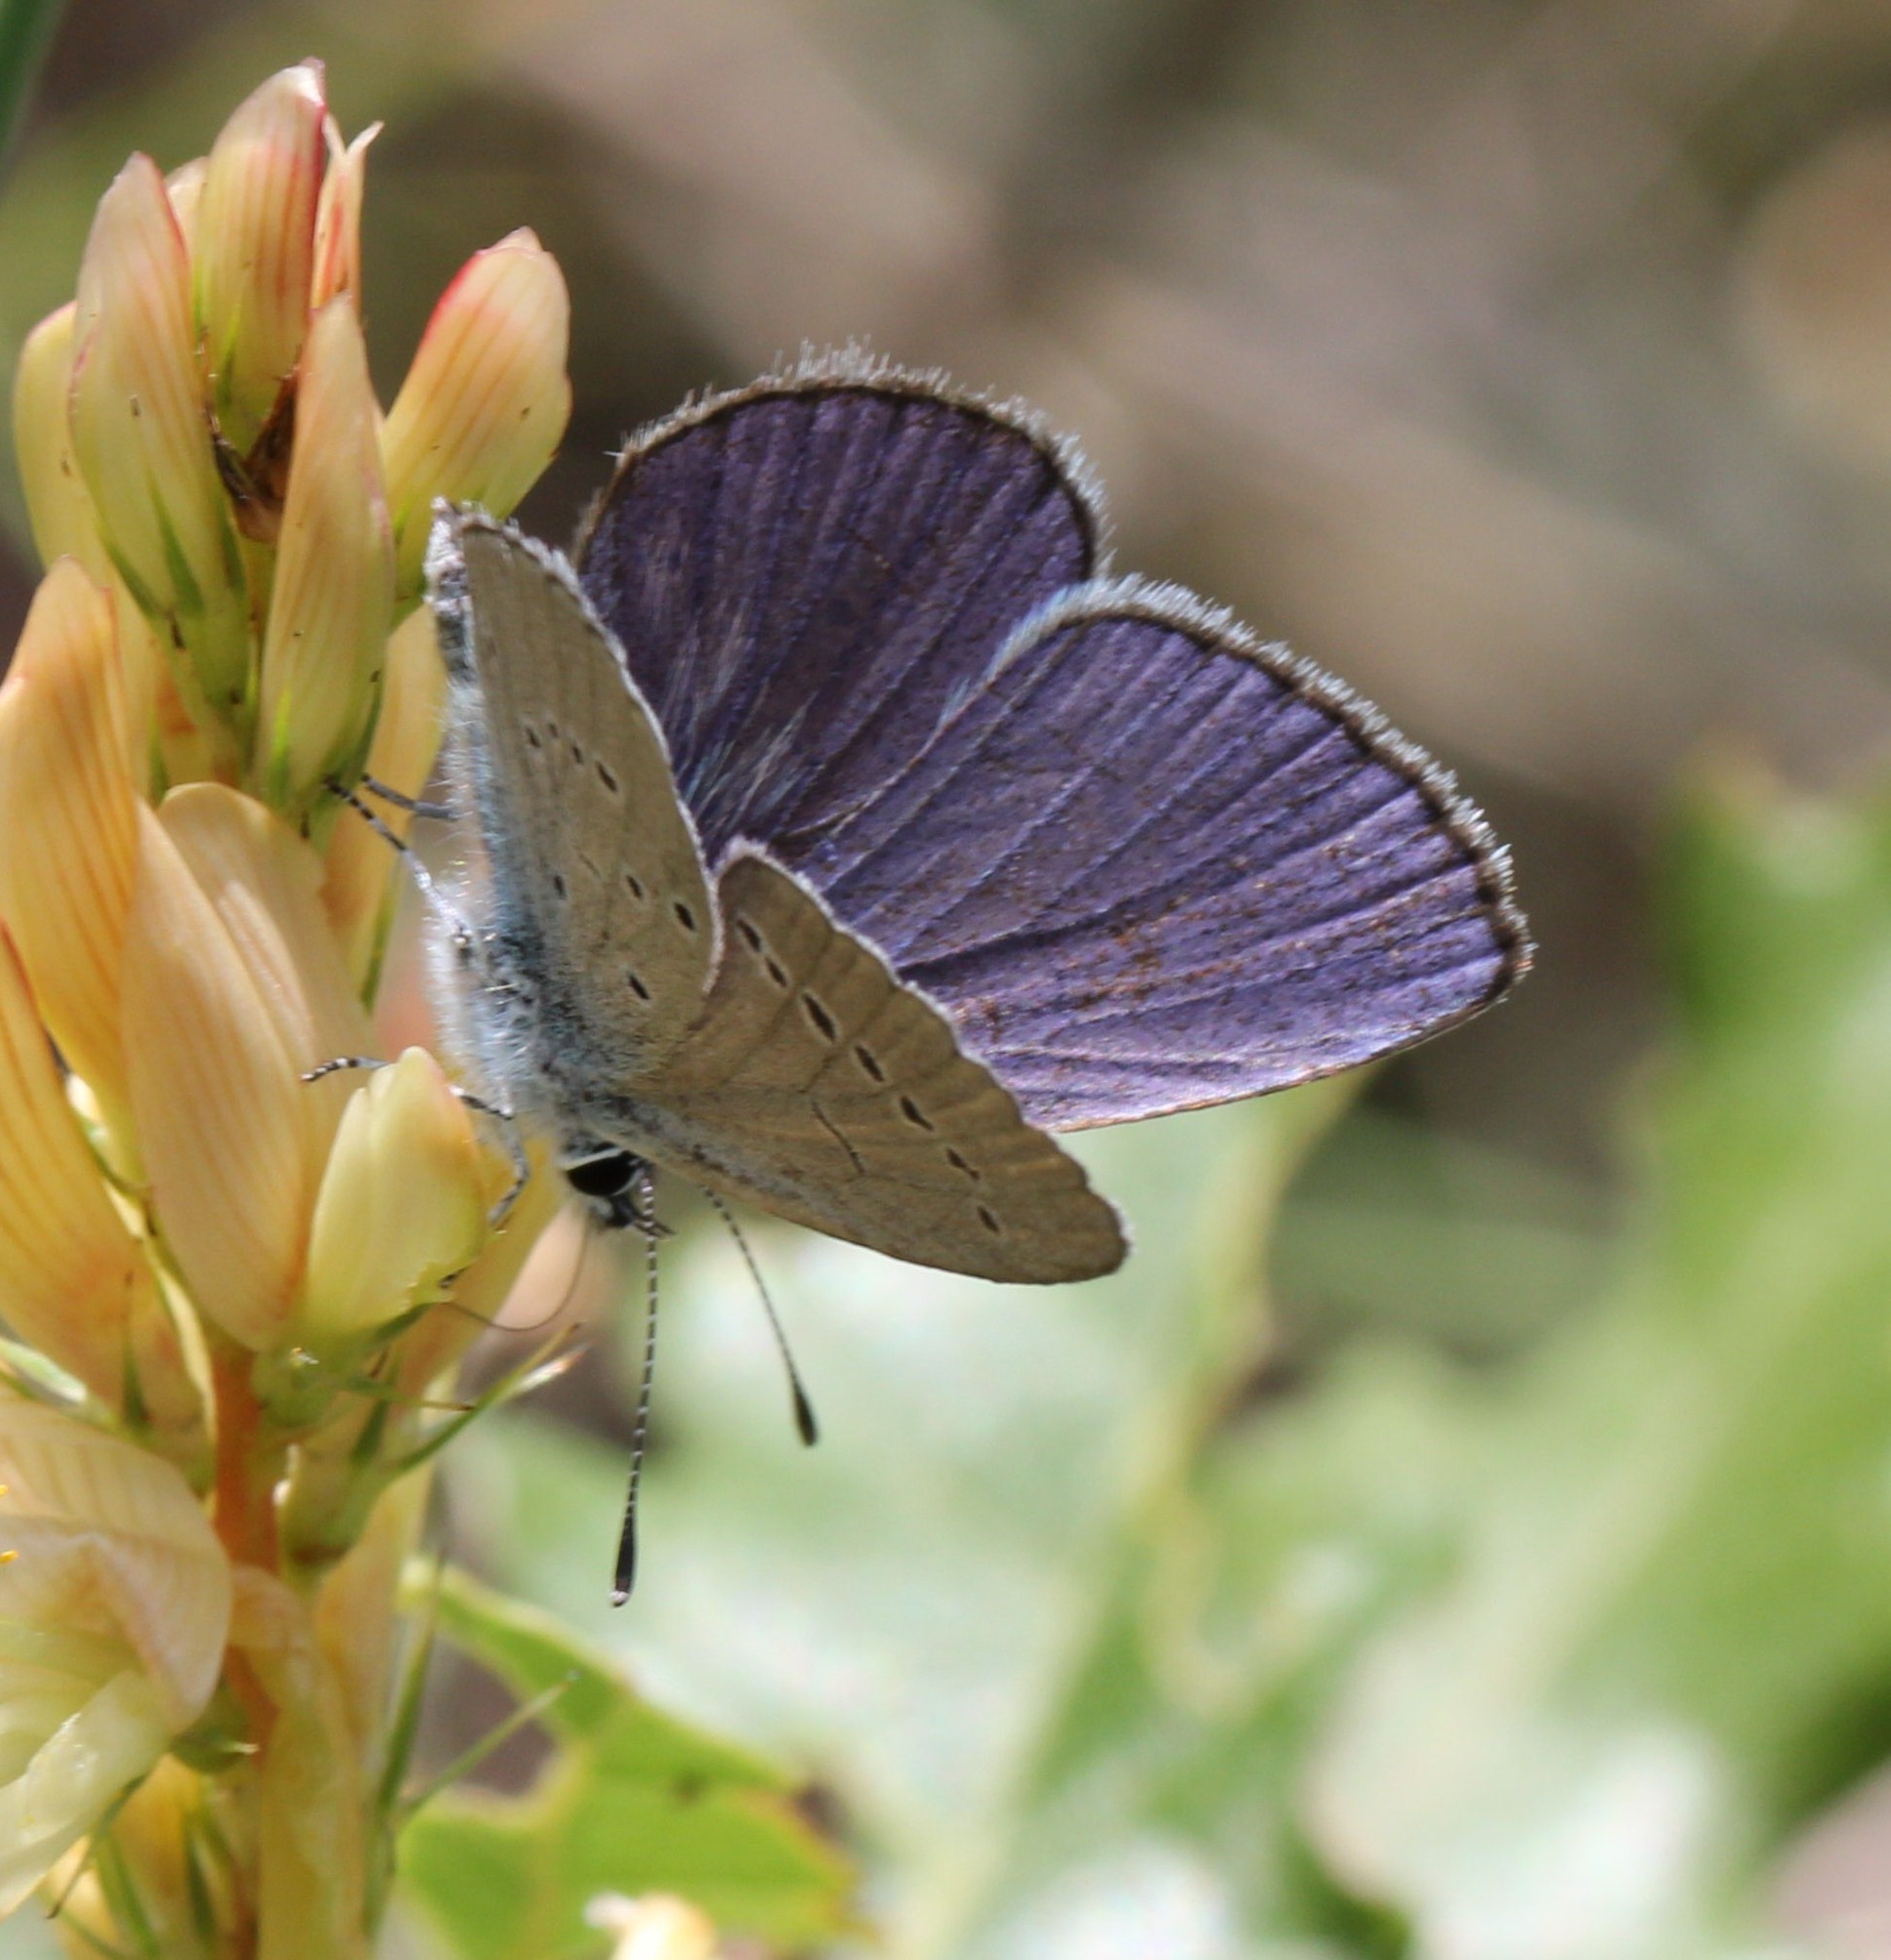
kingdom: Animalia
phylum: Arthropoda
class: Insecta
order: Lepidoptera
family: Lycaenidae
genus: Everes
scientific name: Everes sebrus
